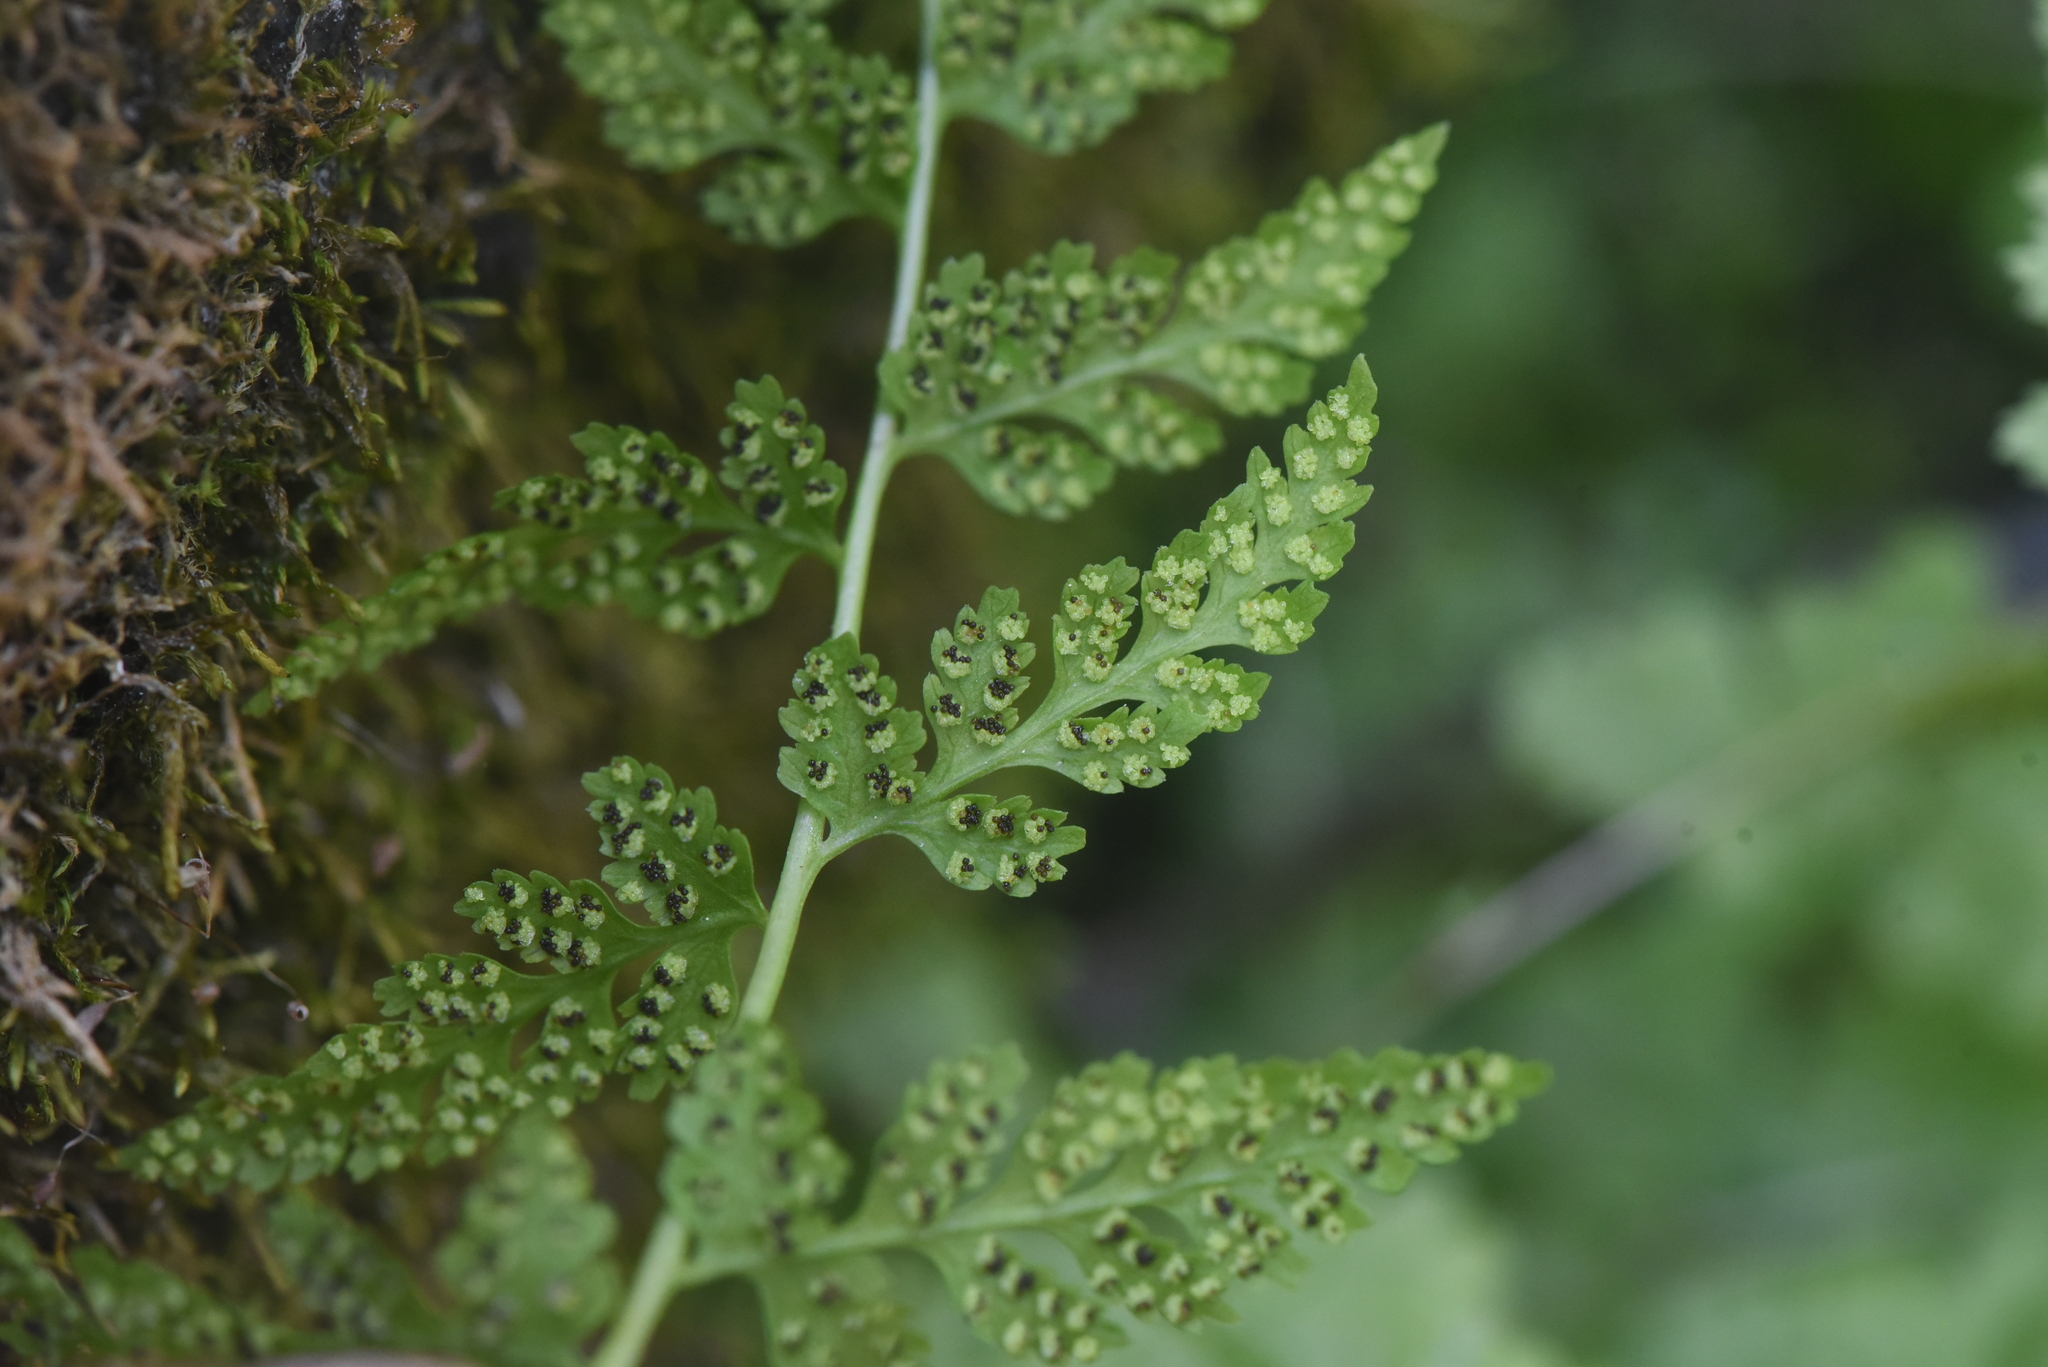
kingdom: Plantae
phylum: Tracheophyta
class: Polypodiopsida
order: Polypodiales
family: Cystopteridaceae
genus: Cystopteris
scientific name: Cystopteris fragilis
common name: Brittle bladder fern
